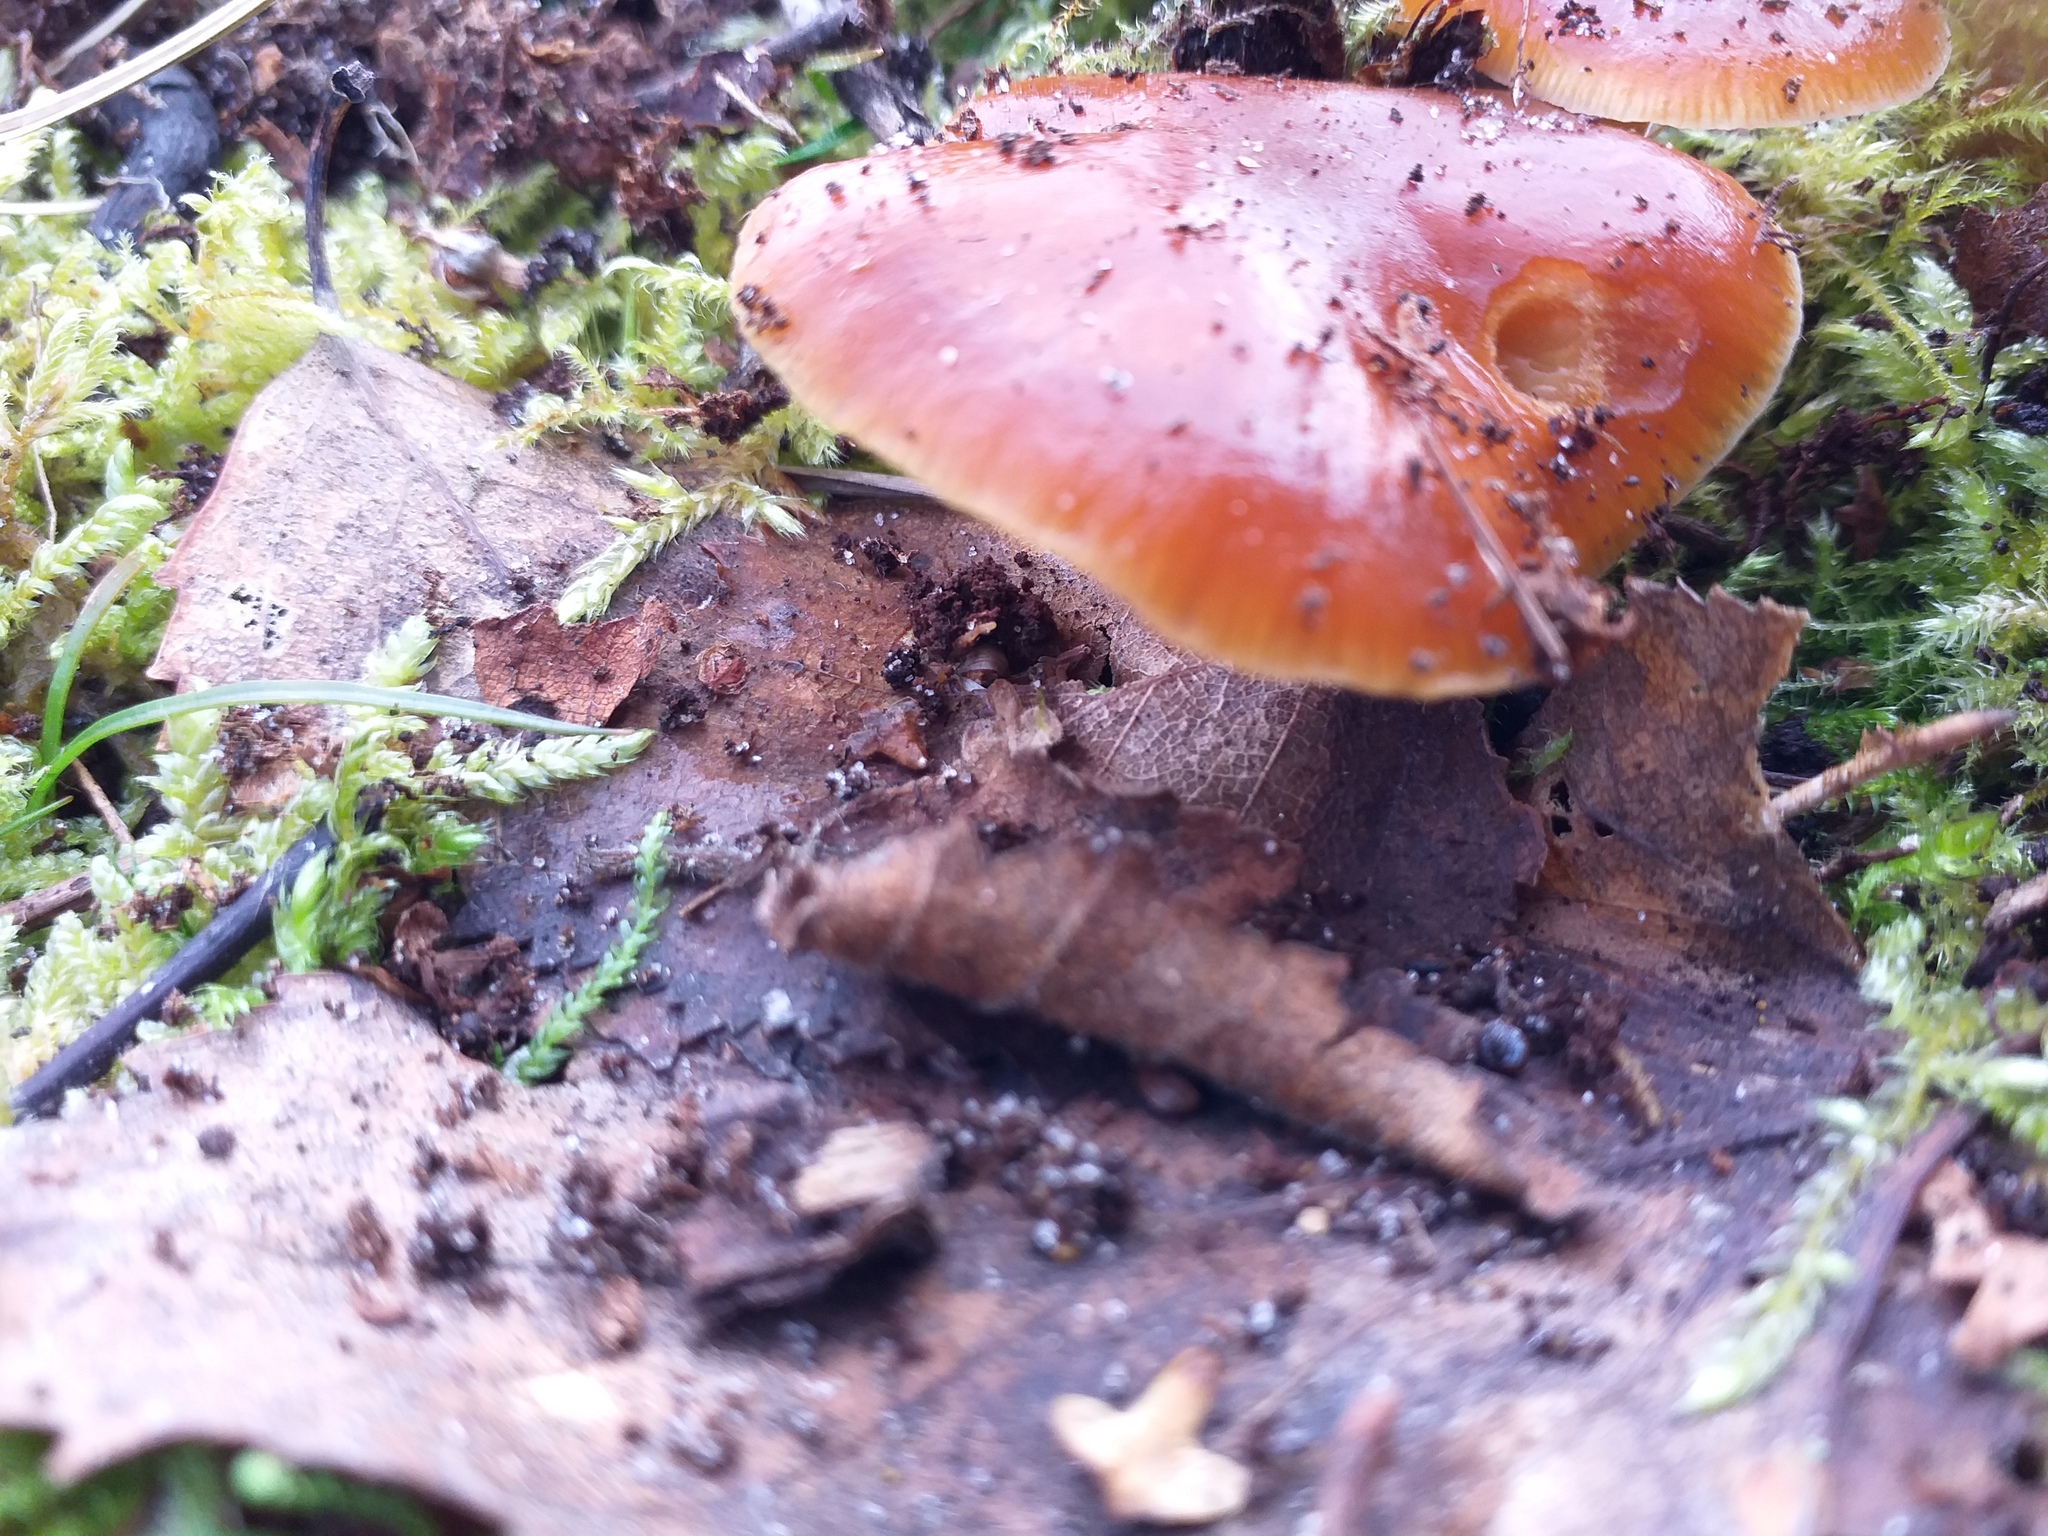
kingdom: Fungi
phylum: Basidiomycota
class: Agaricomycetes
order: Agaricales
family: Physalacriaceae
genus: Flammulina
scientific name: Flammulina
